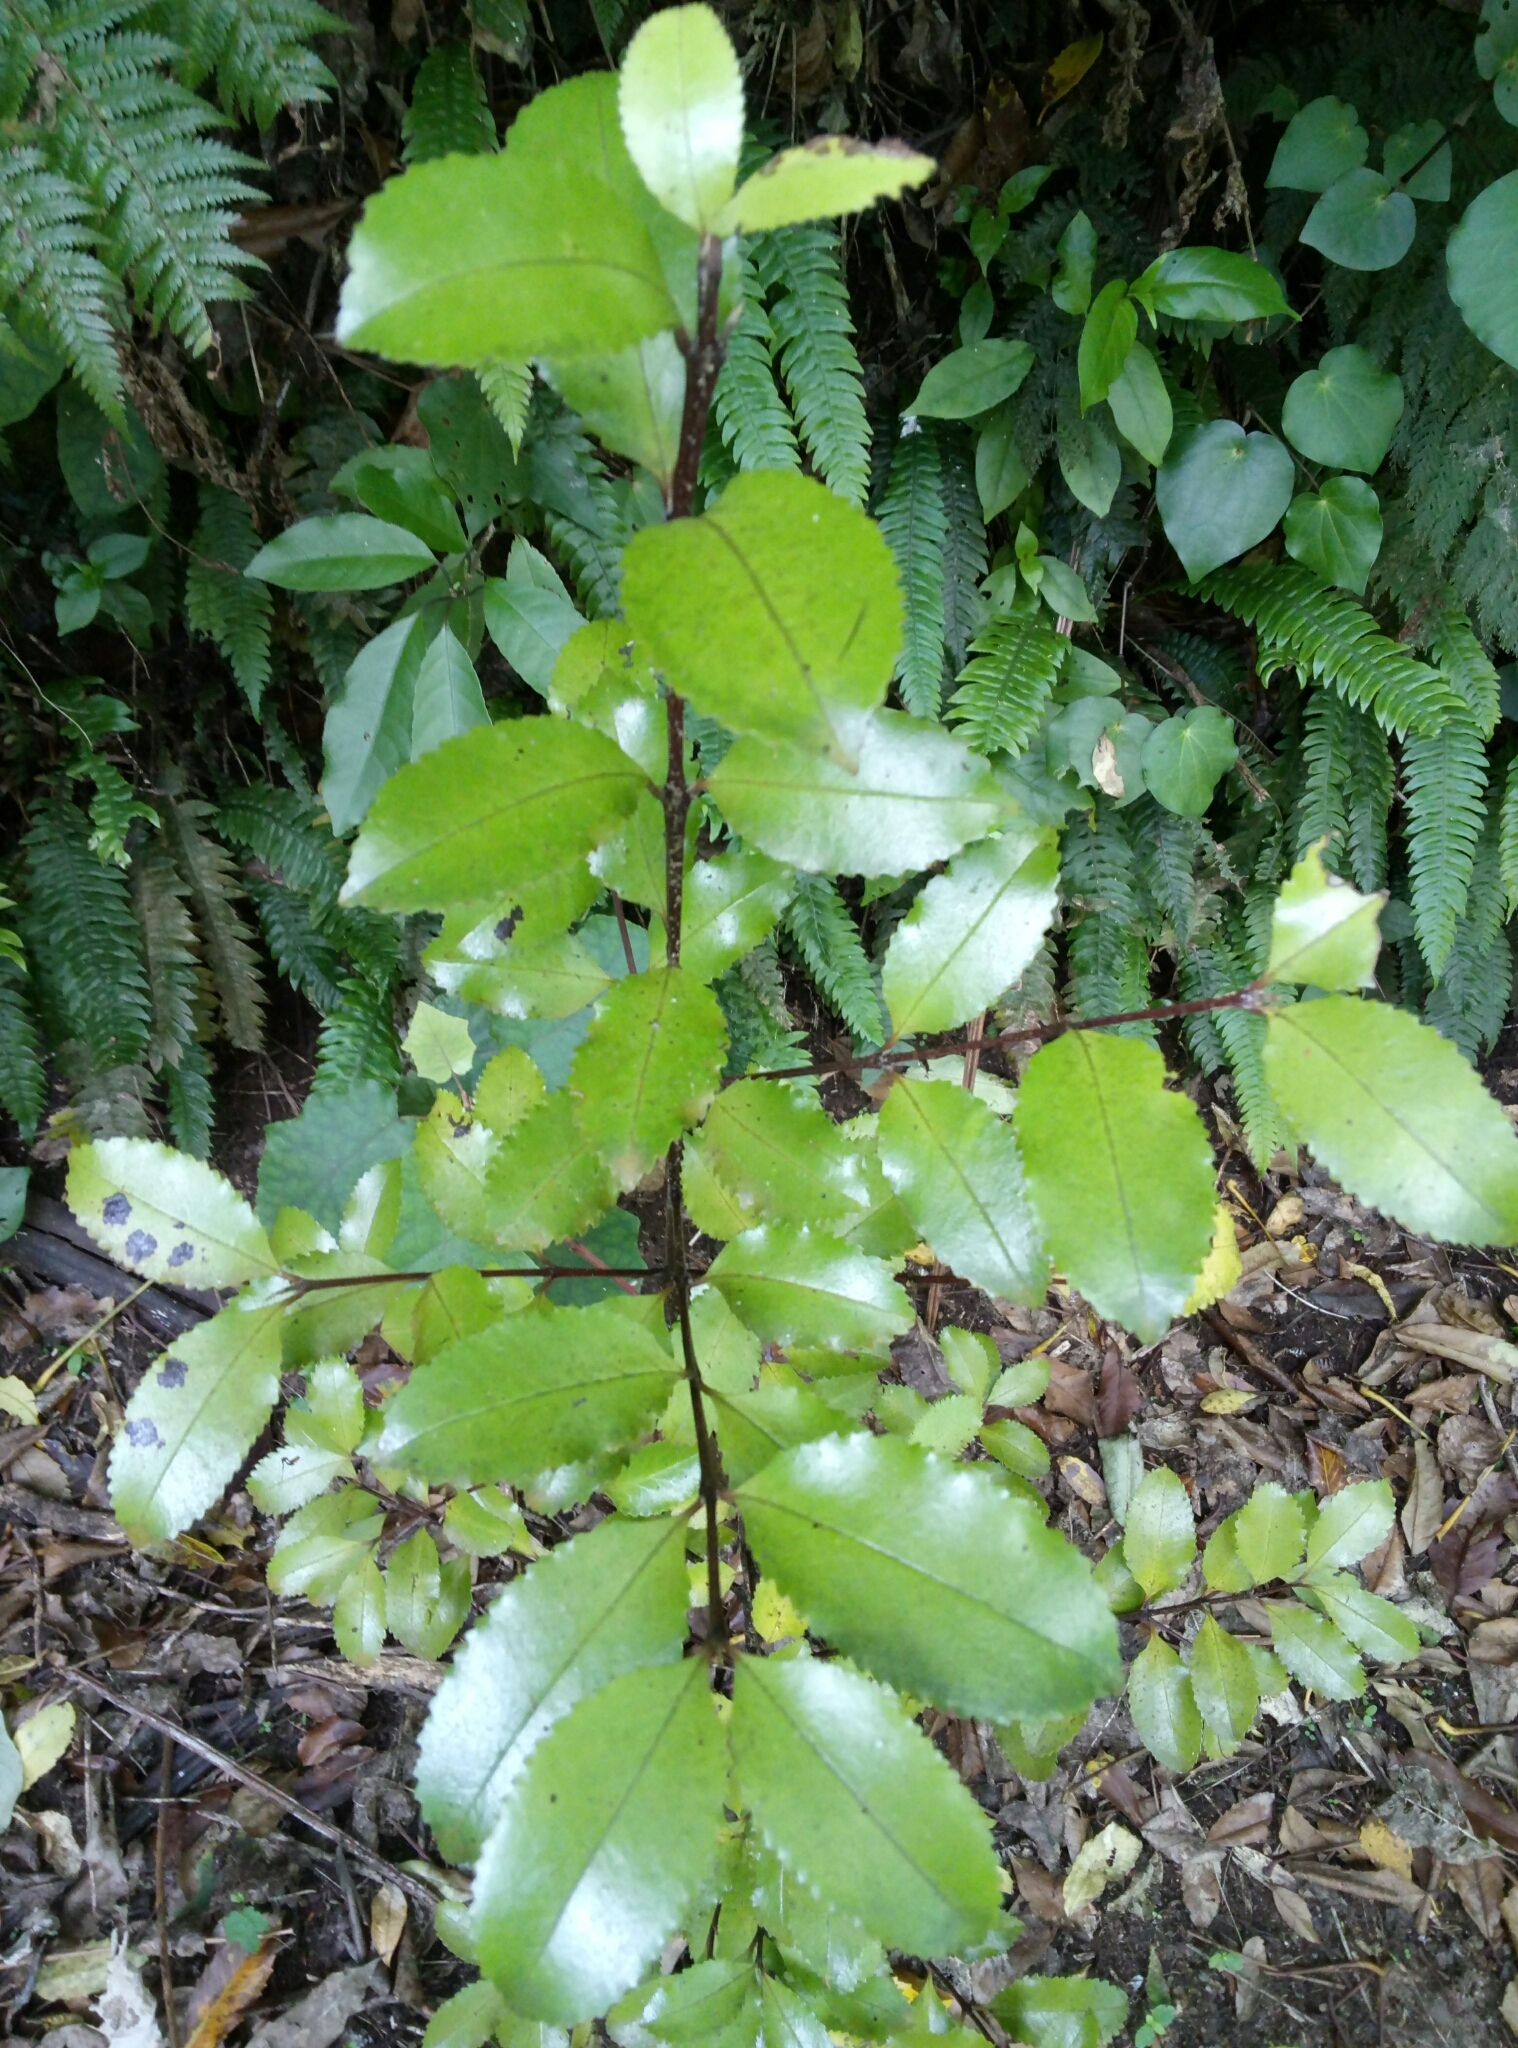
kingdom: Plantae
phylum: Tracheophyta
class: Magnoliopsida
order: Laurales
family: Atherospermataceae
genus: Laurelia
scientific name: Laurelia novae-zelandiae
